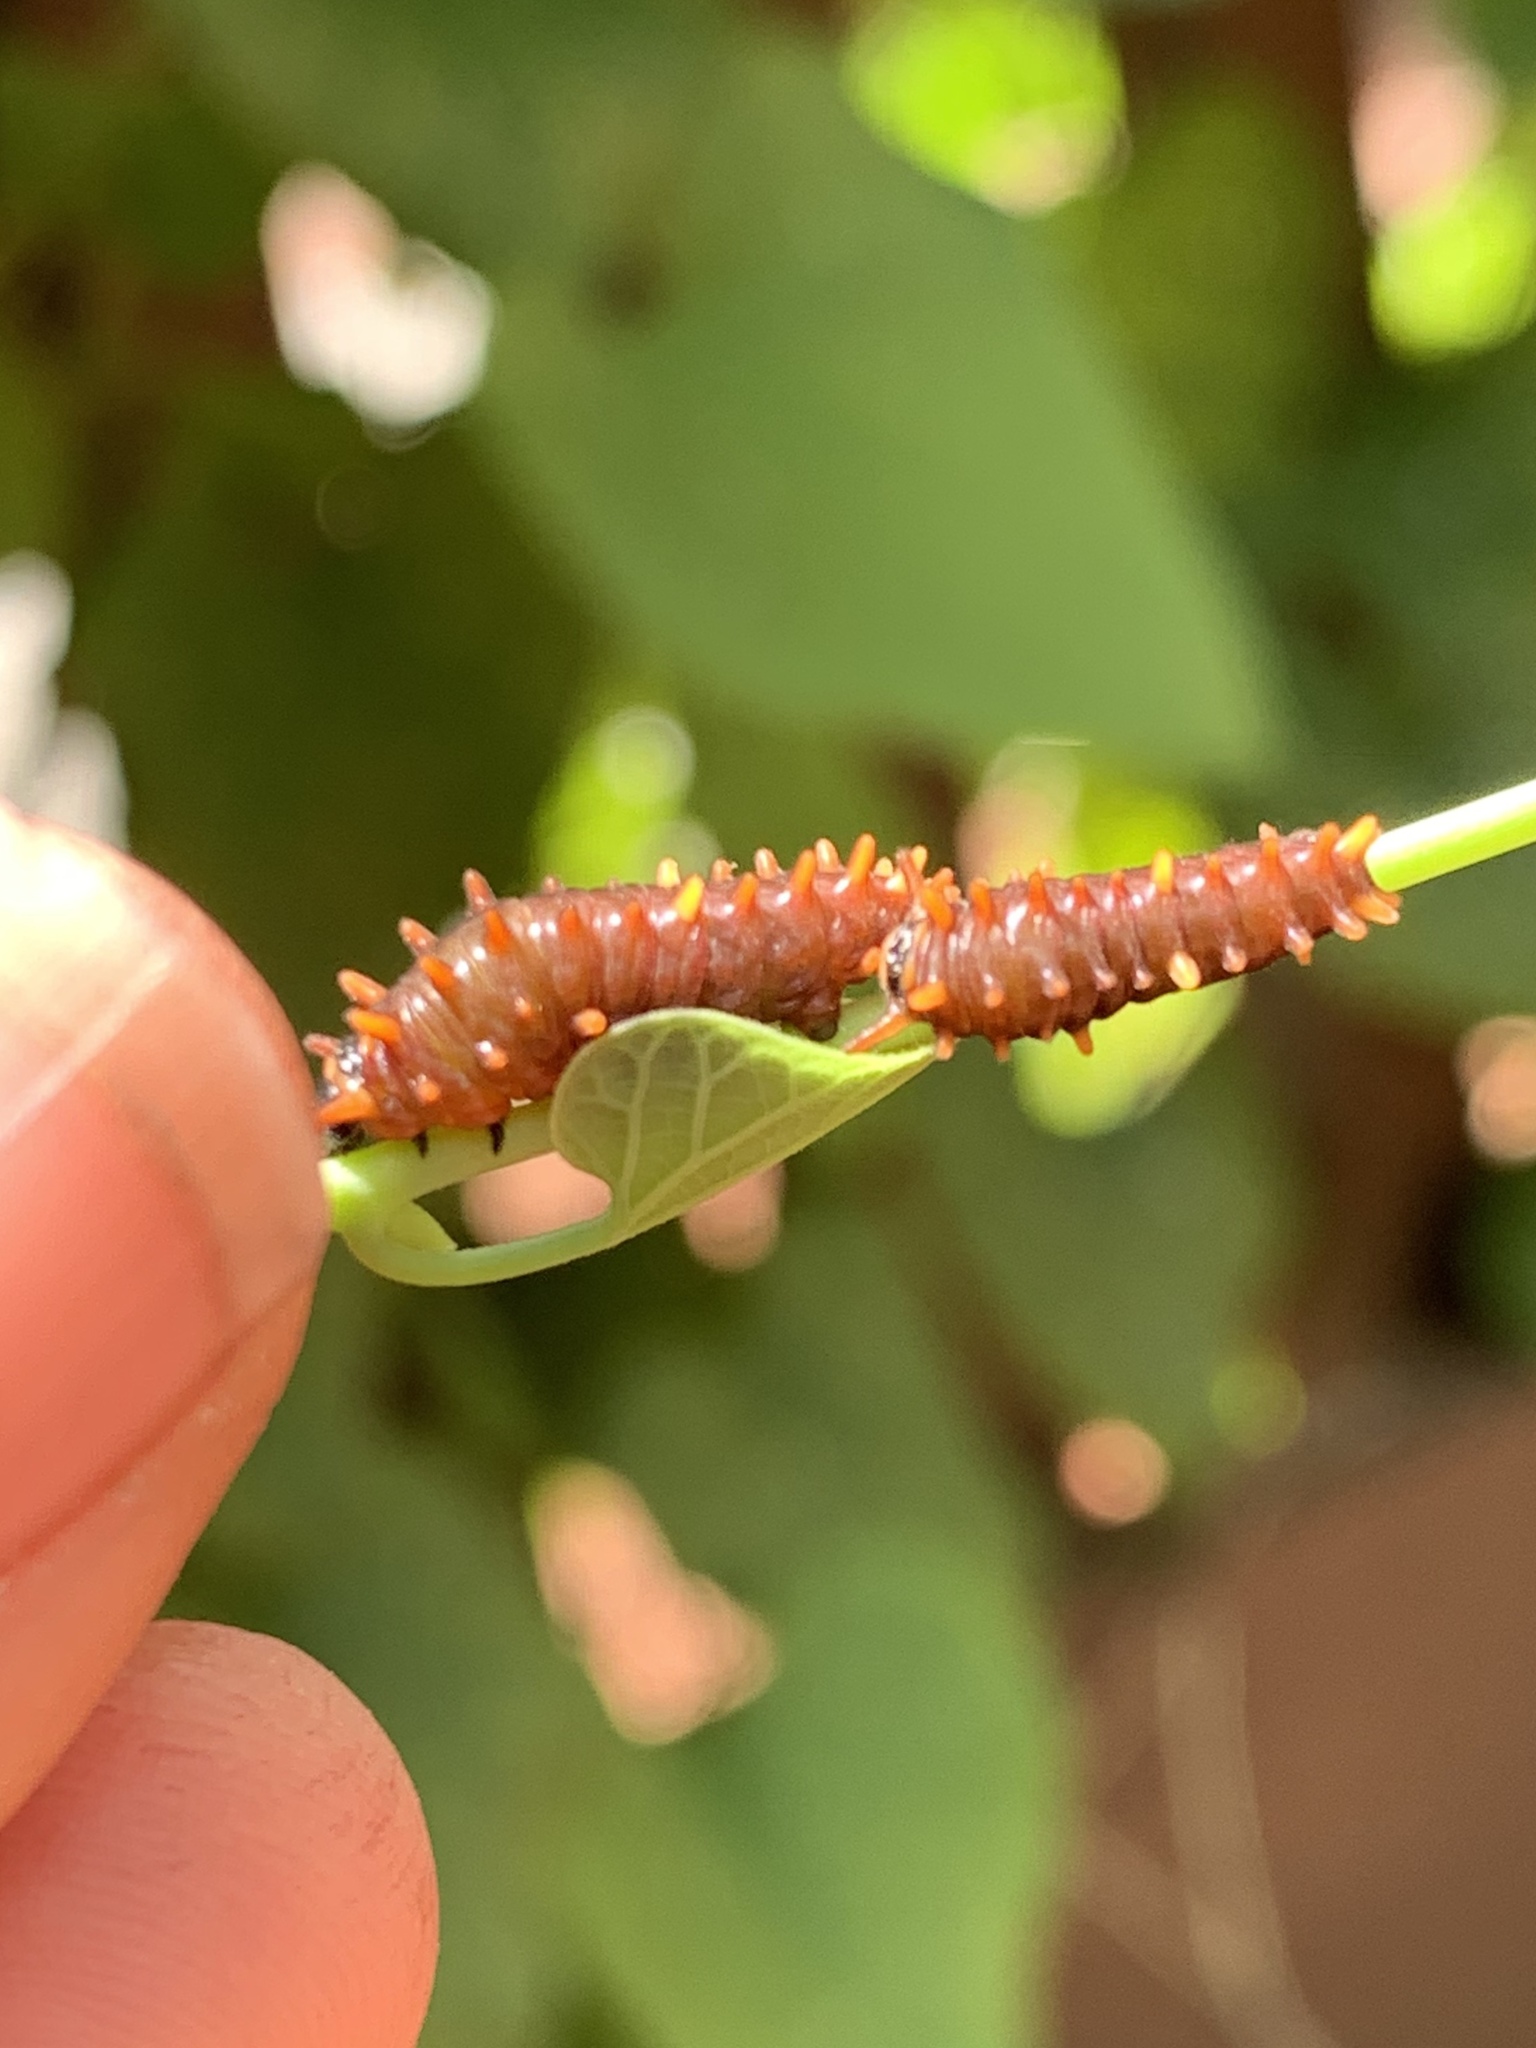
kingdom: Animalia
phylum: Arthropoda
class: Insecta
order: Lepidoptera
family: Papilionidae
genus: Battus
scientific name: Battus polydamas
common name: Polydamas swallowtail
